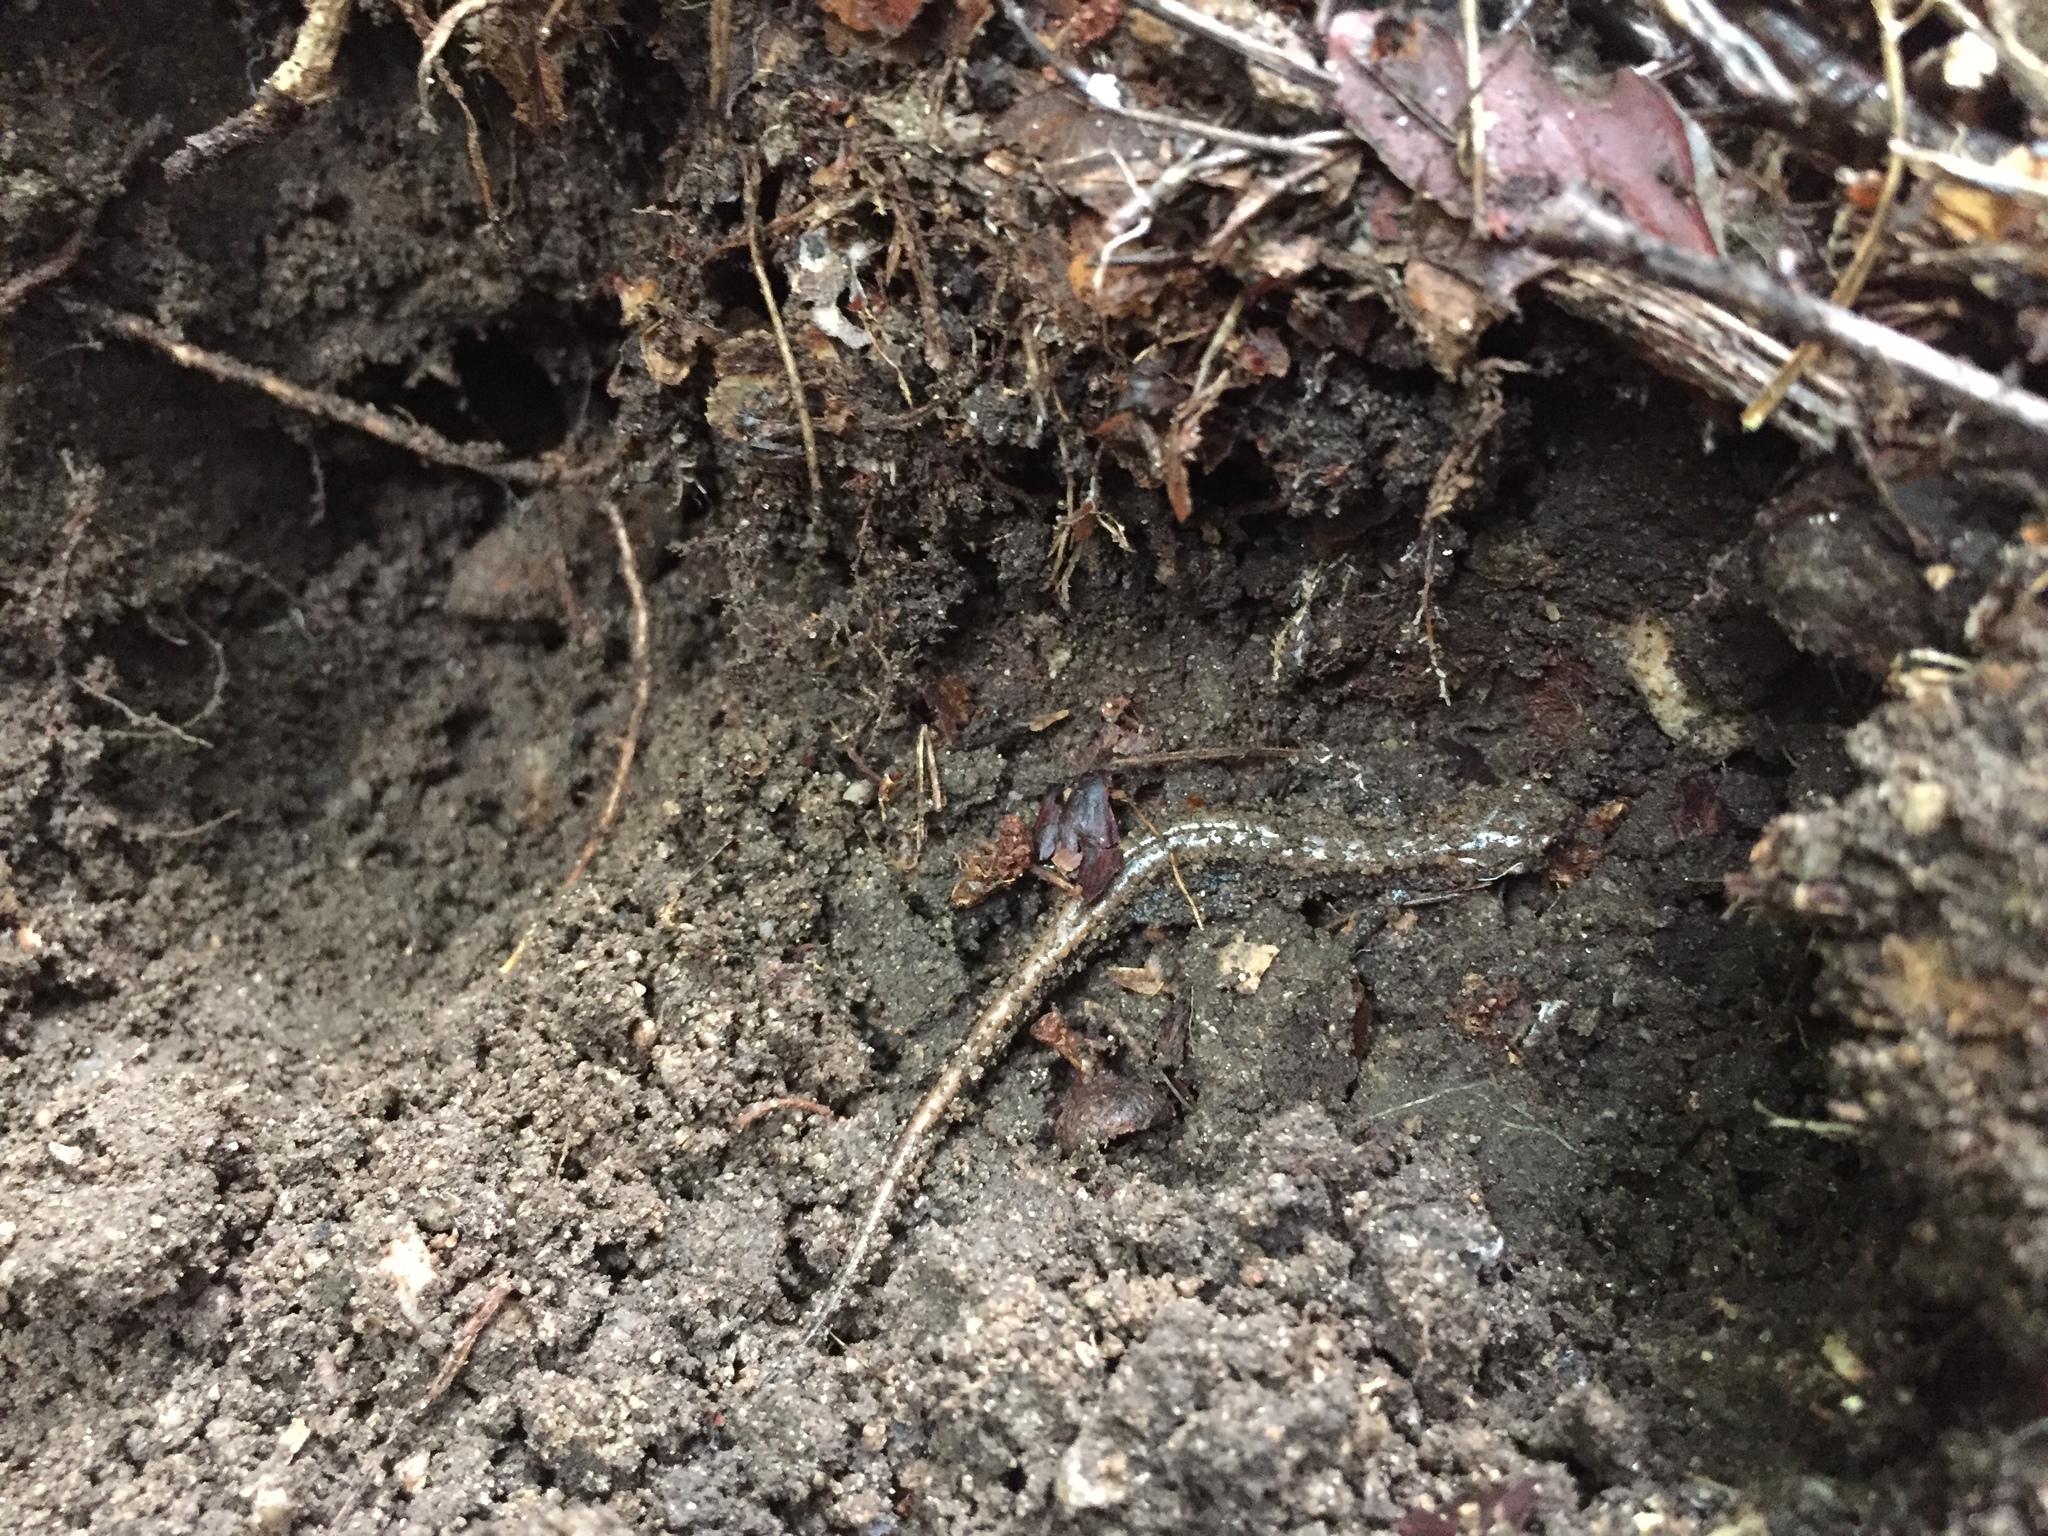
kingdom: Animalia
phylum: Chordata
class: Amphibia
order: Caudata
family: Plethodontidae
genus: Karsenia
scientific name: Karsenia koreana
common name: Korean crevice salamander
